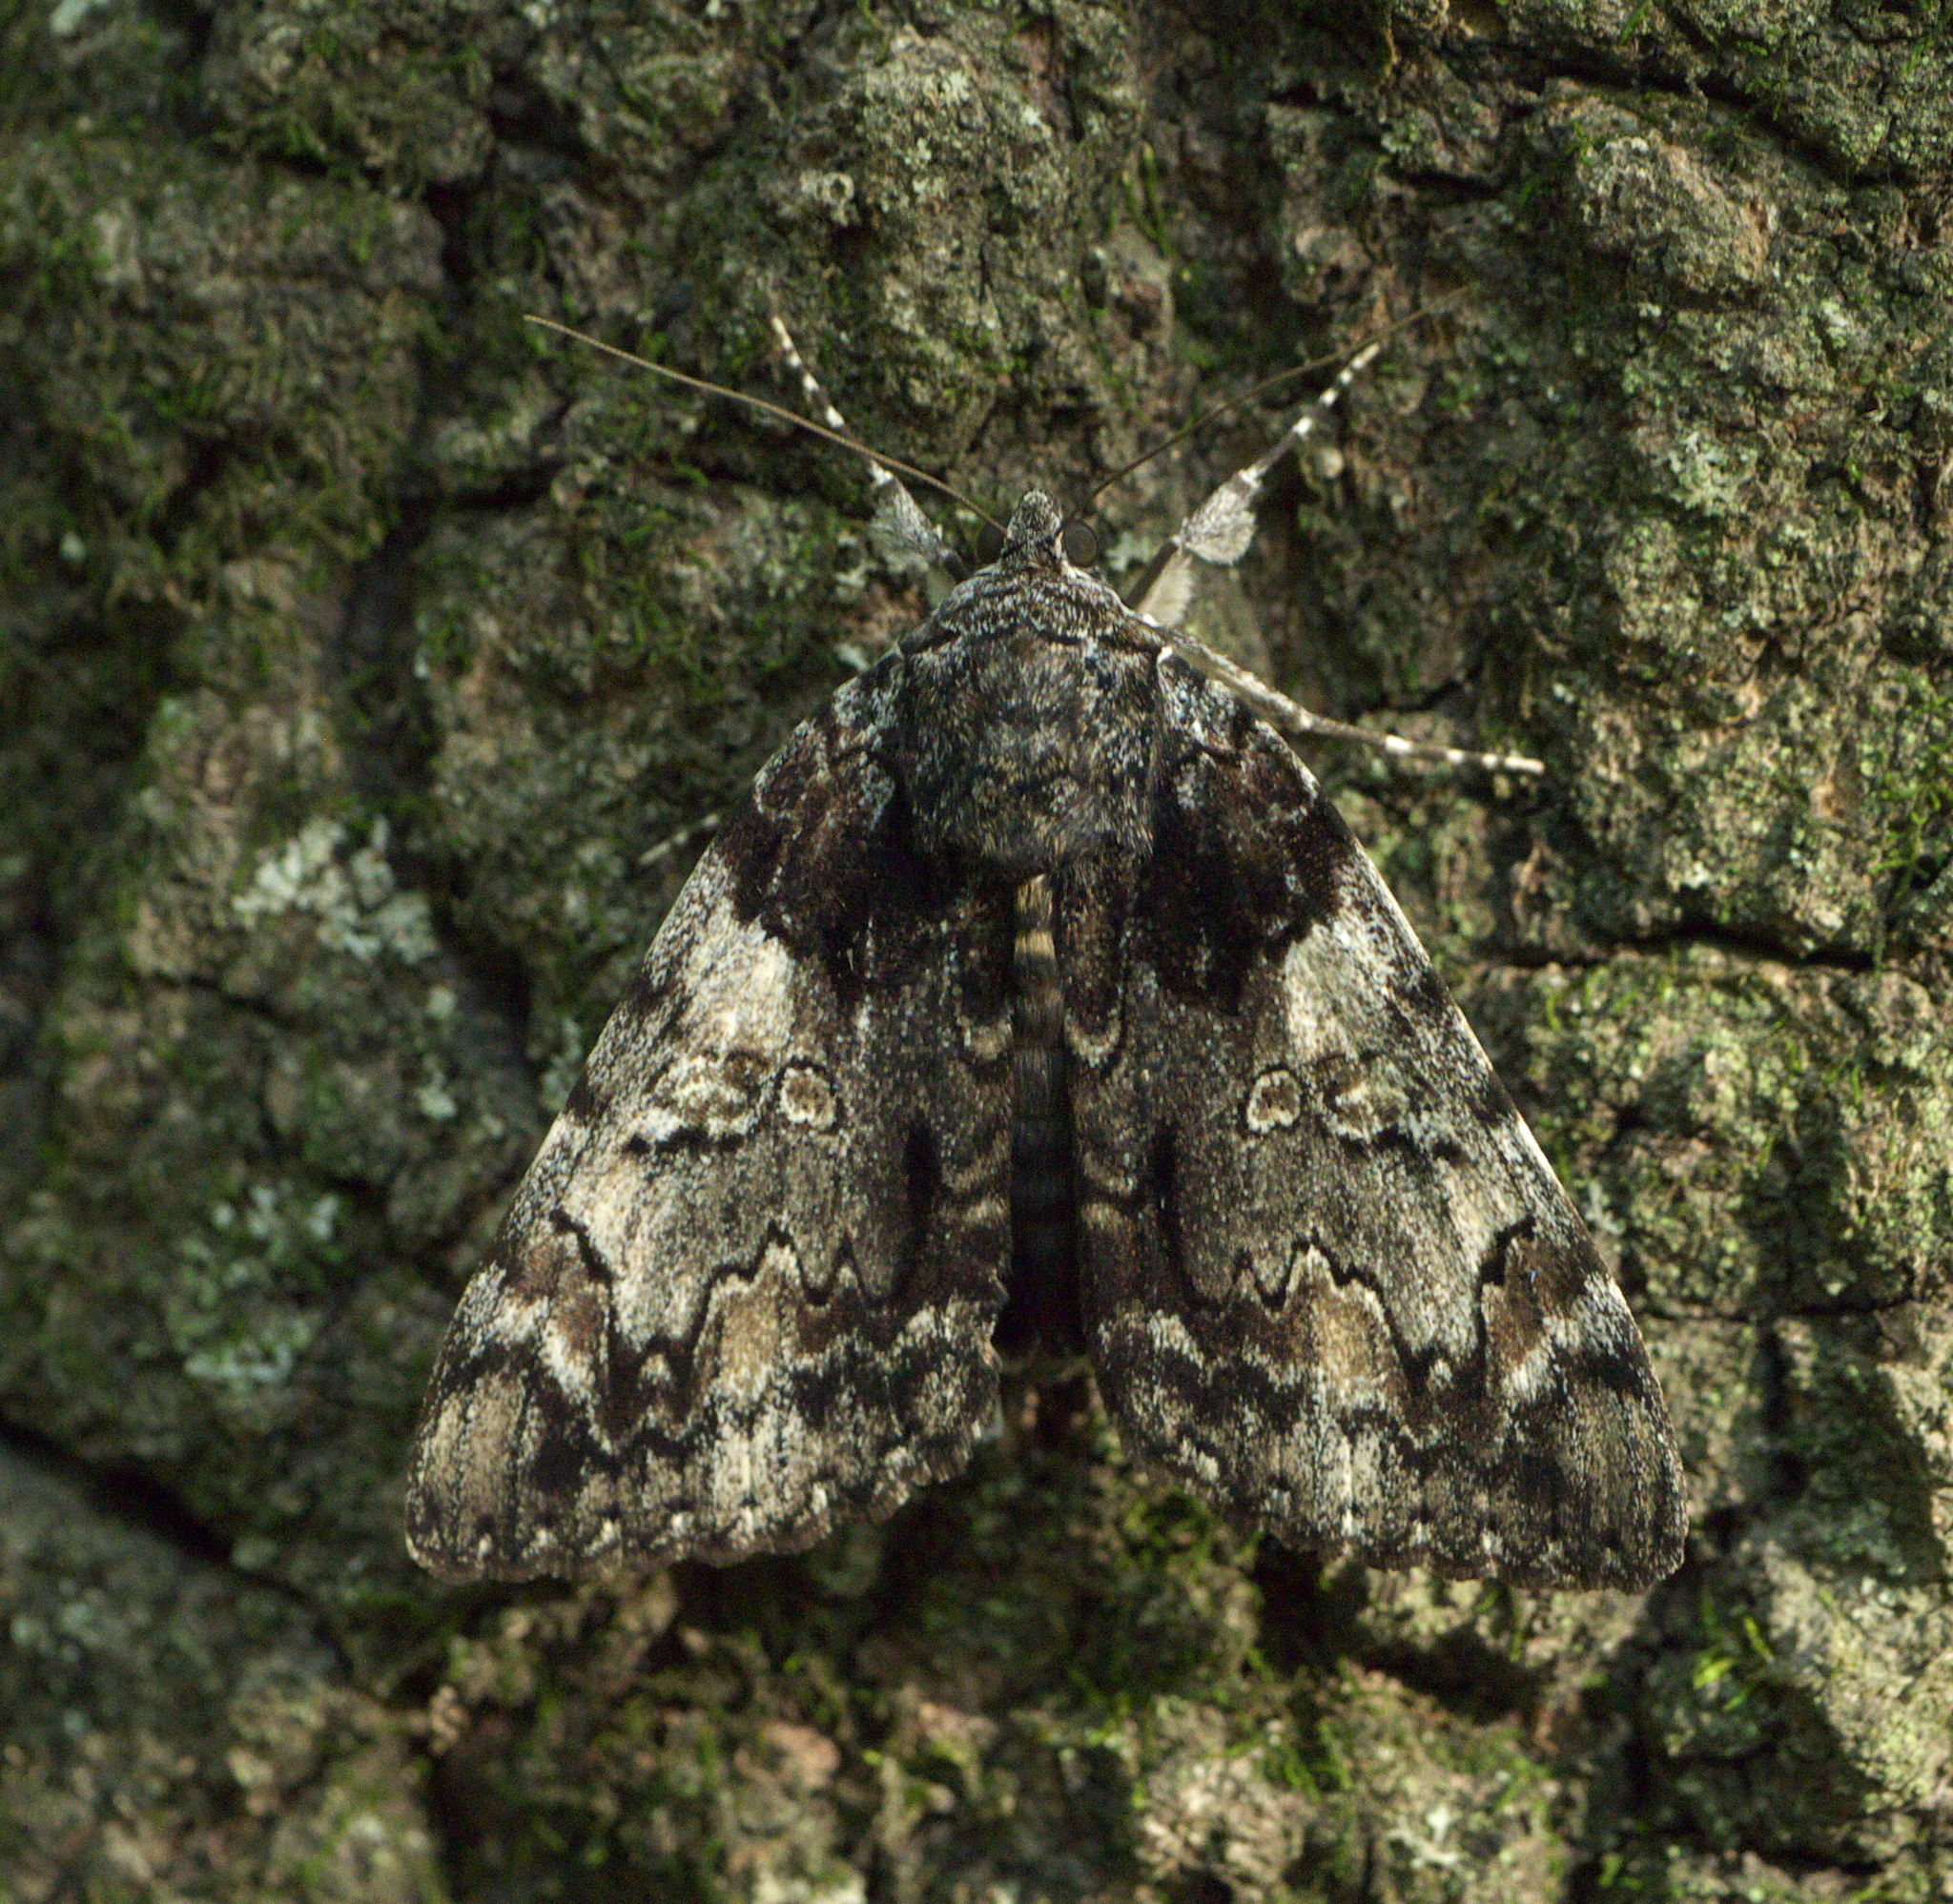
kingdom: Animalia
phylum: Arthropoda
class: Insecta
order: Lepidoptera
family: Erebidae
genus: Catocala
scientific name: Catocala lacrymosa
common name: Tearful underwing
